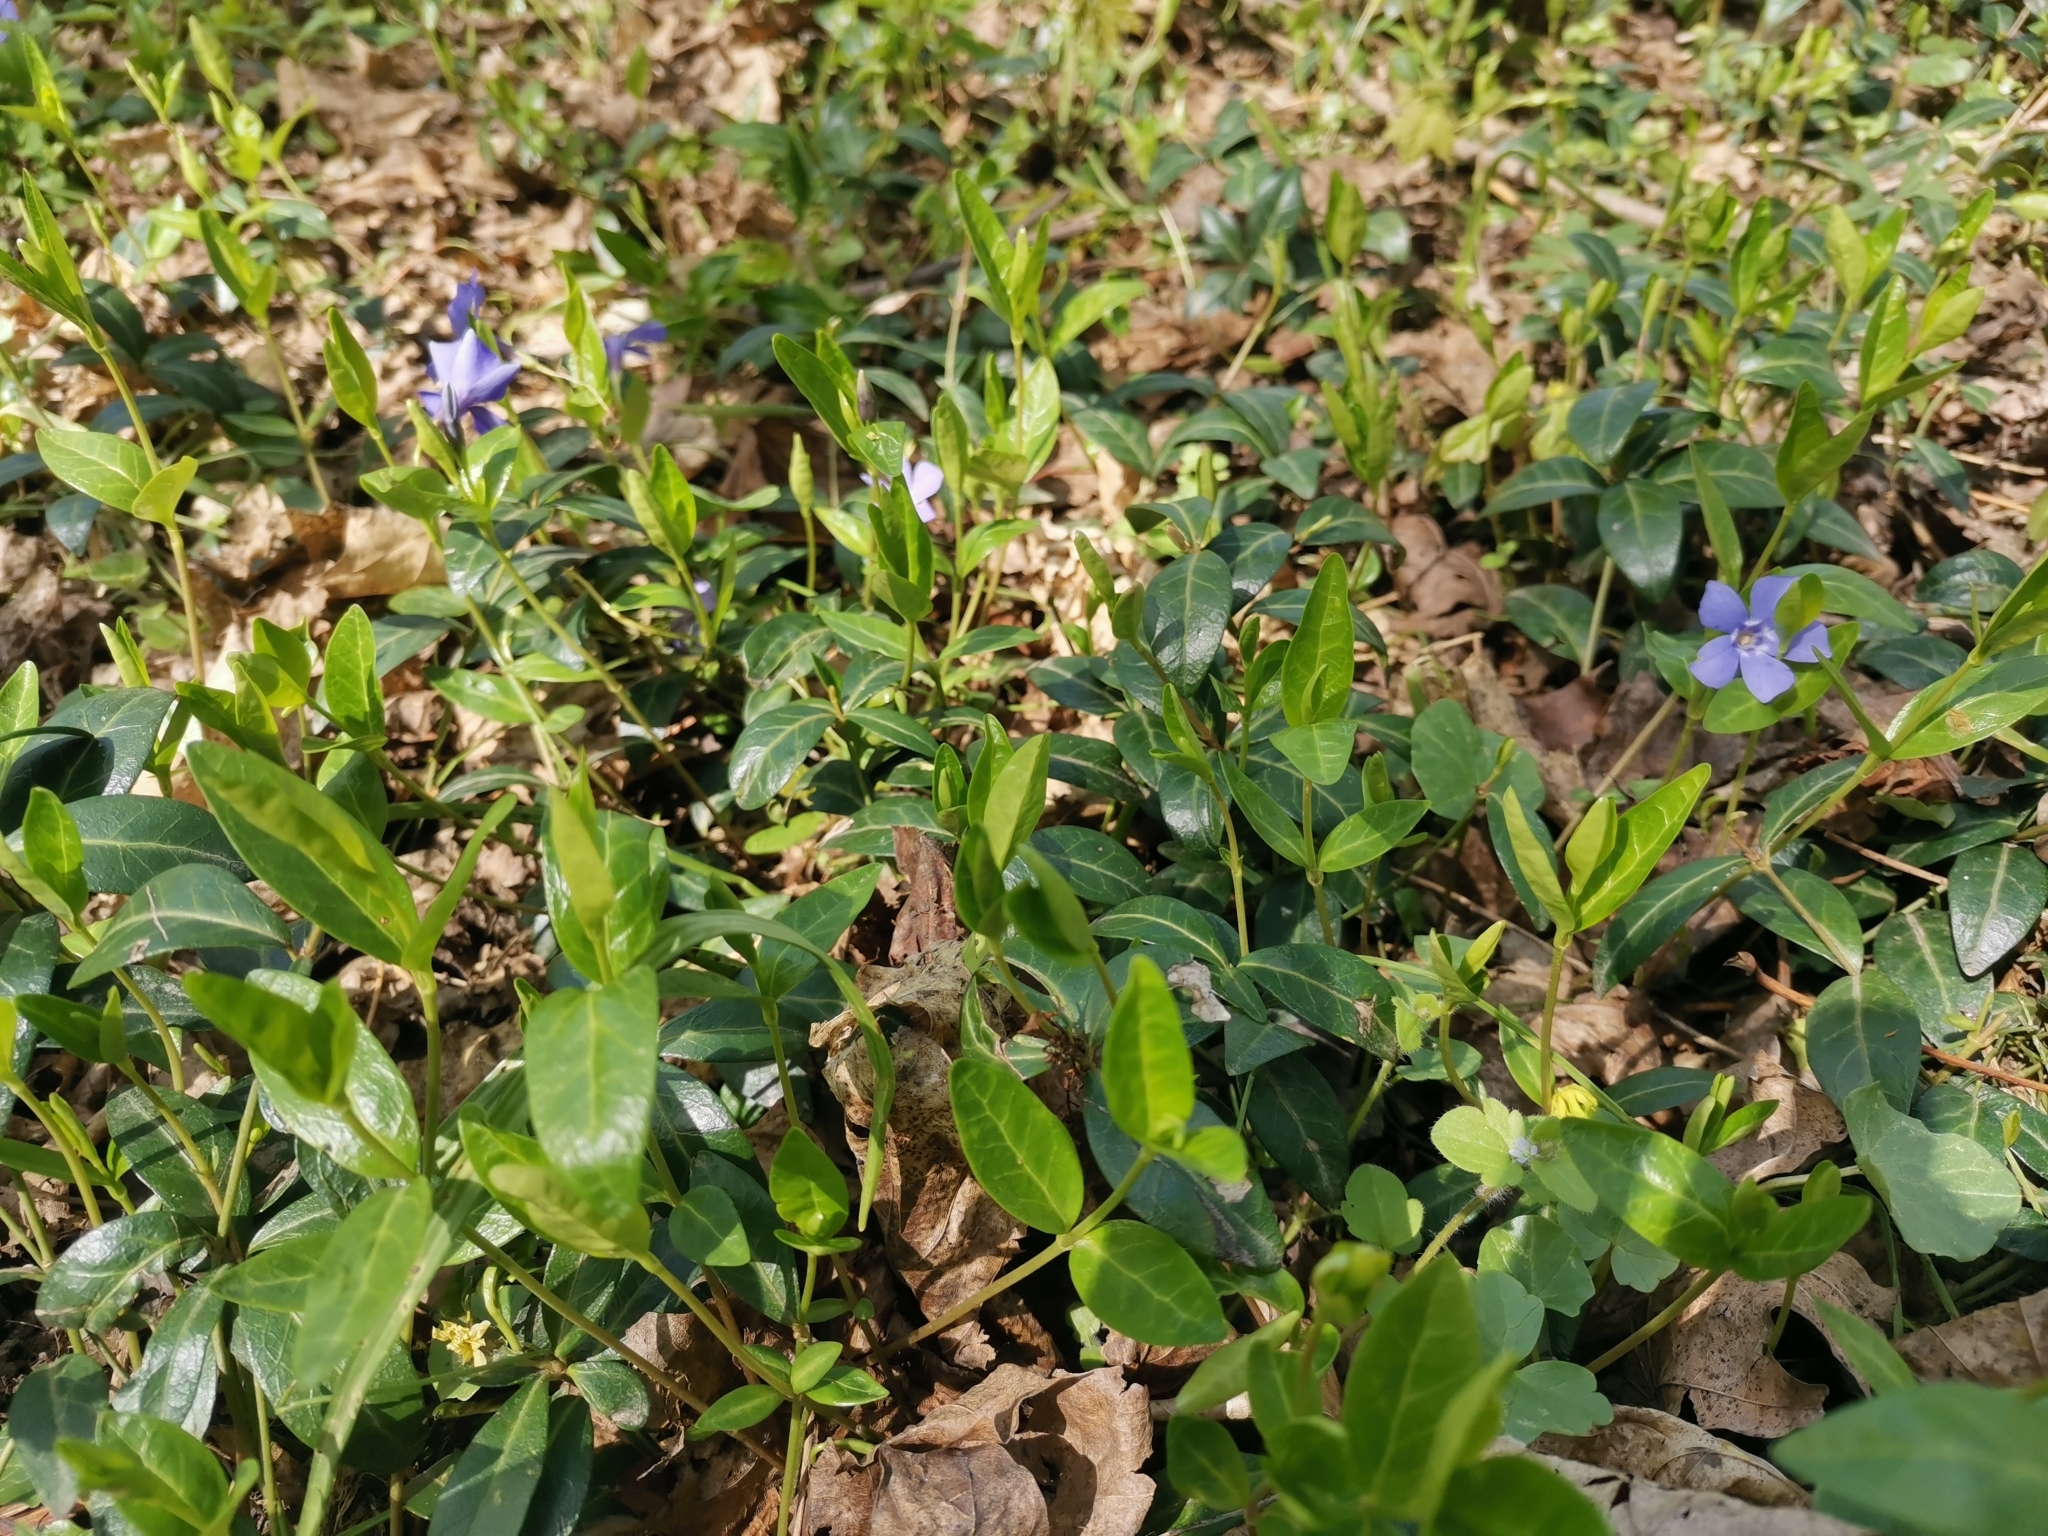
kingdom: Plantae
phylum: Tracheophyta
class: Magnoliopsida
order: Gentianales
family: Apocynaceae
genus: Vinca
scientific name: Vinca minor
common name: Lesser periwinkle
